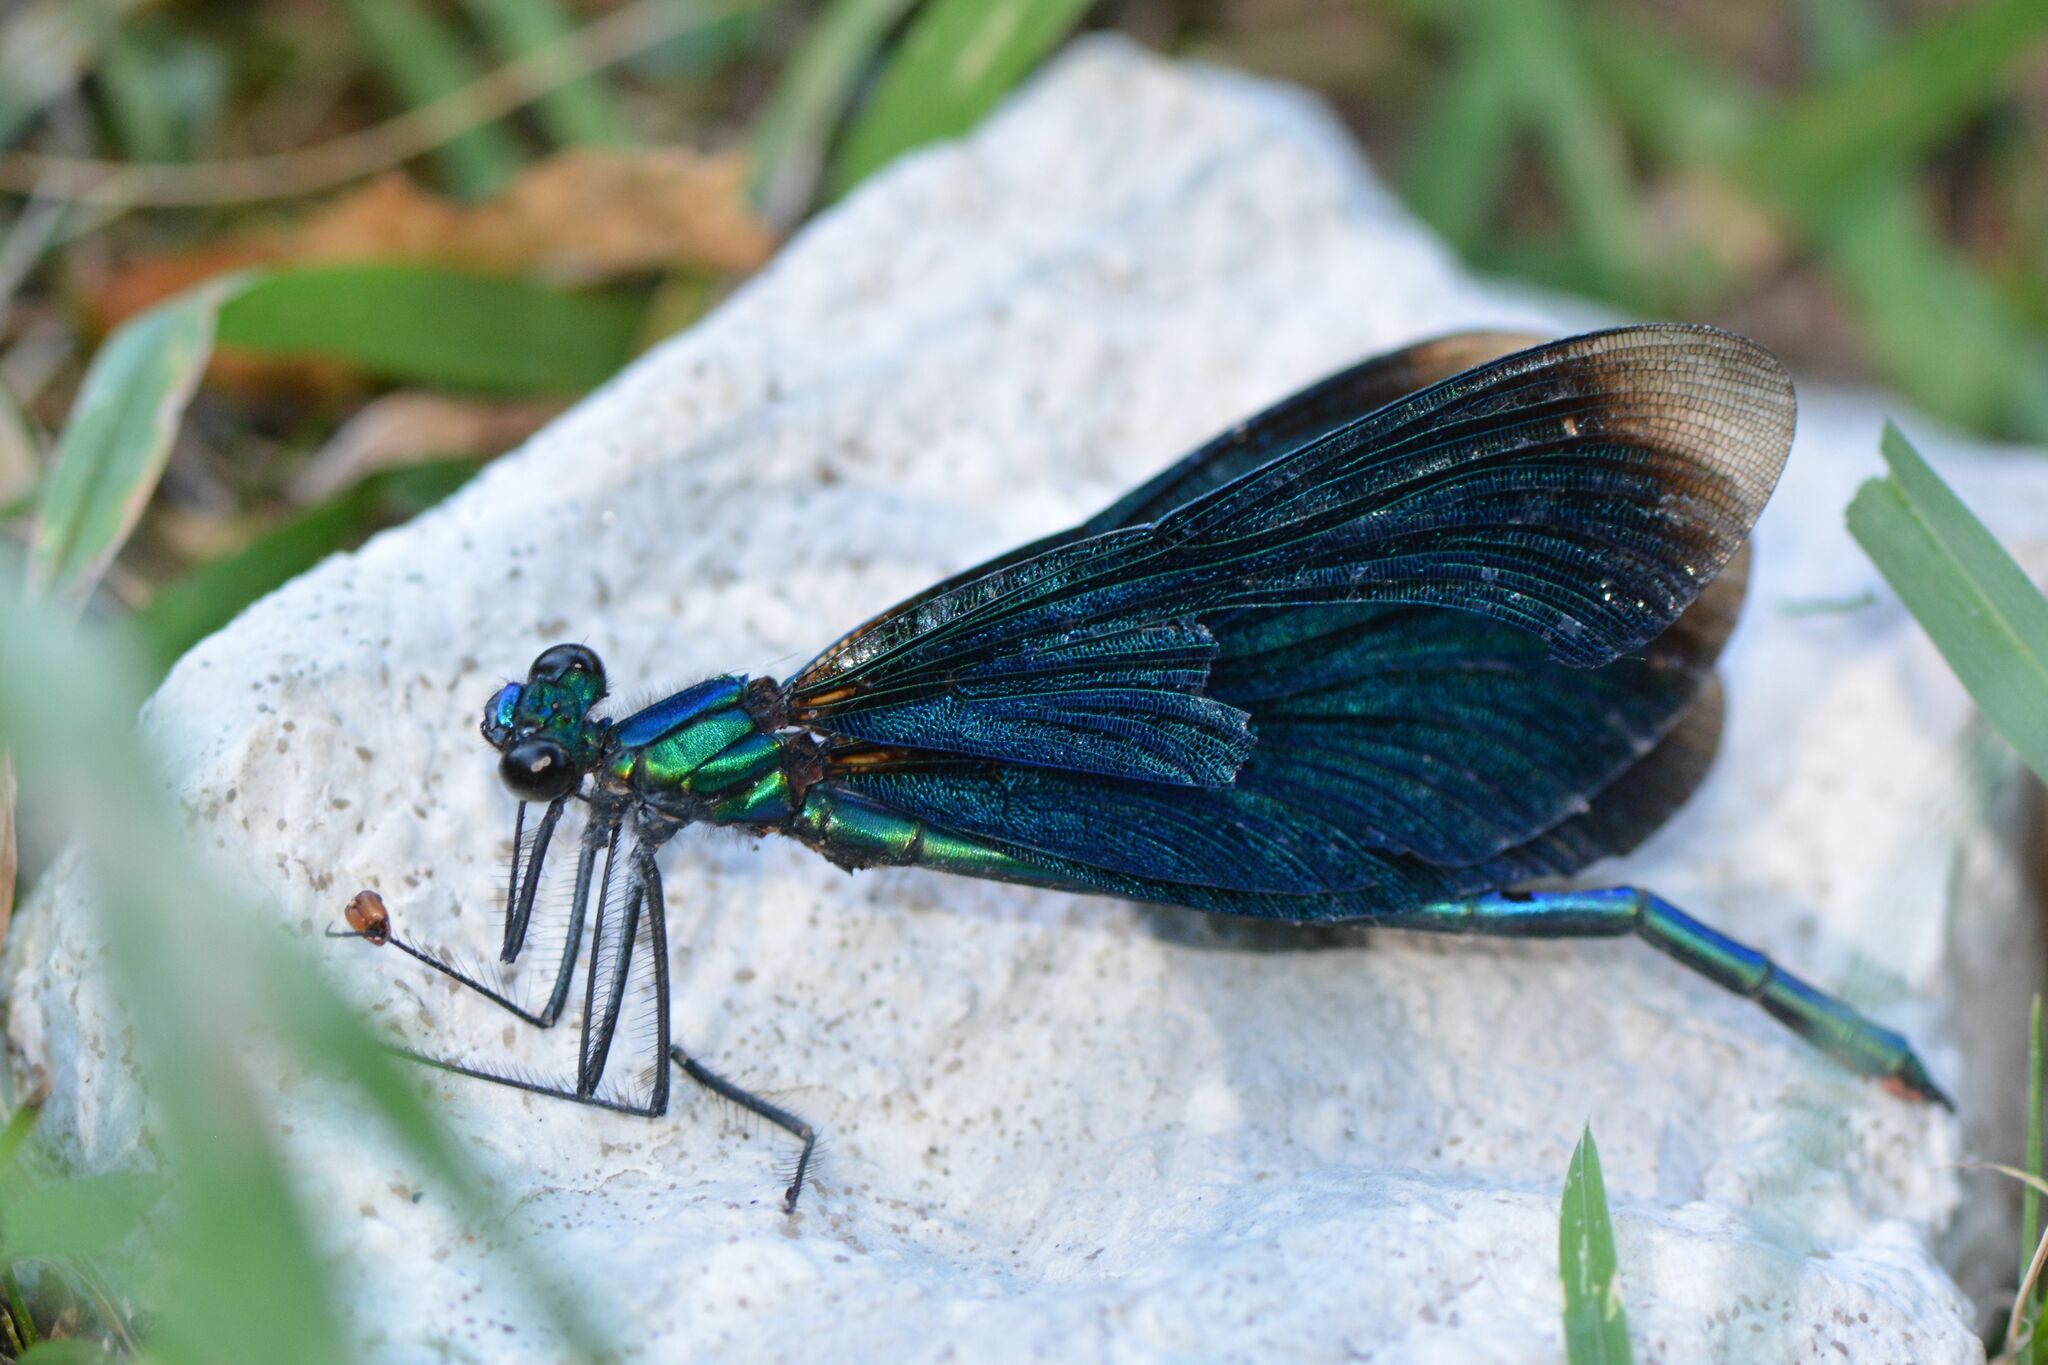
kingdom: Animalia
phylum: Arthropoda
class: Insecta
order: Odonata
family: Calopterygidae
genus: Calopteryx
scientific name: Calopteryx virgo
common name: Beautiful demoiselle
